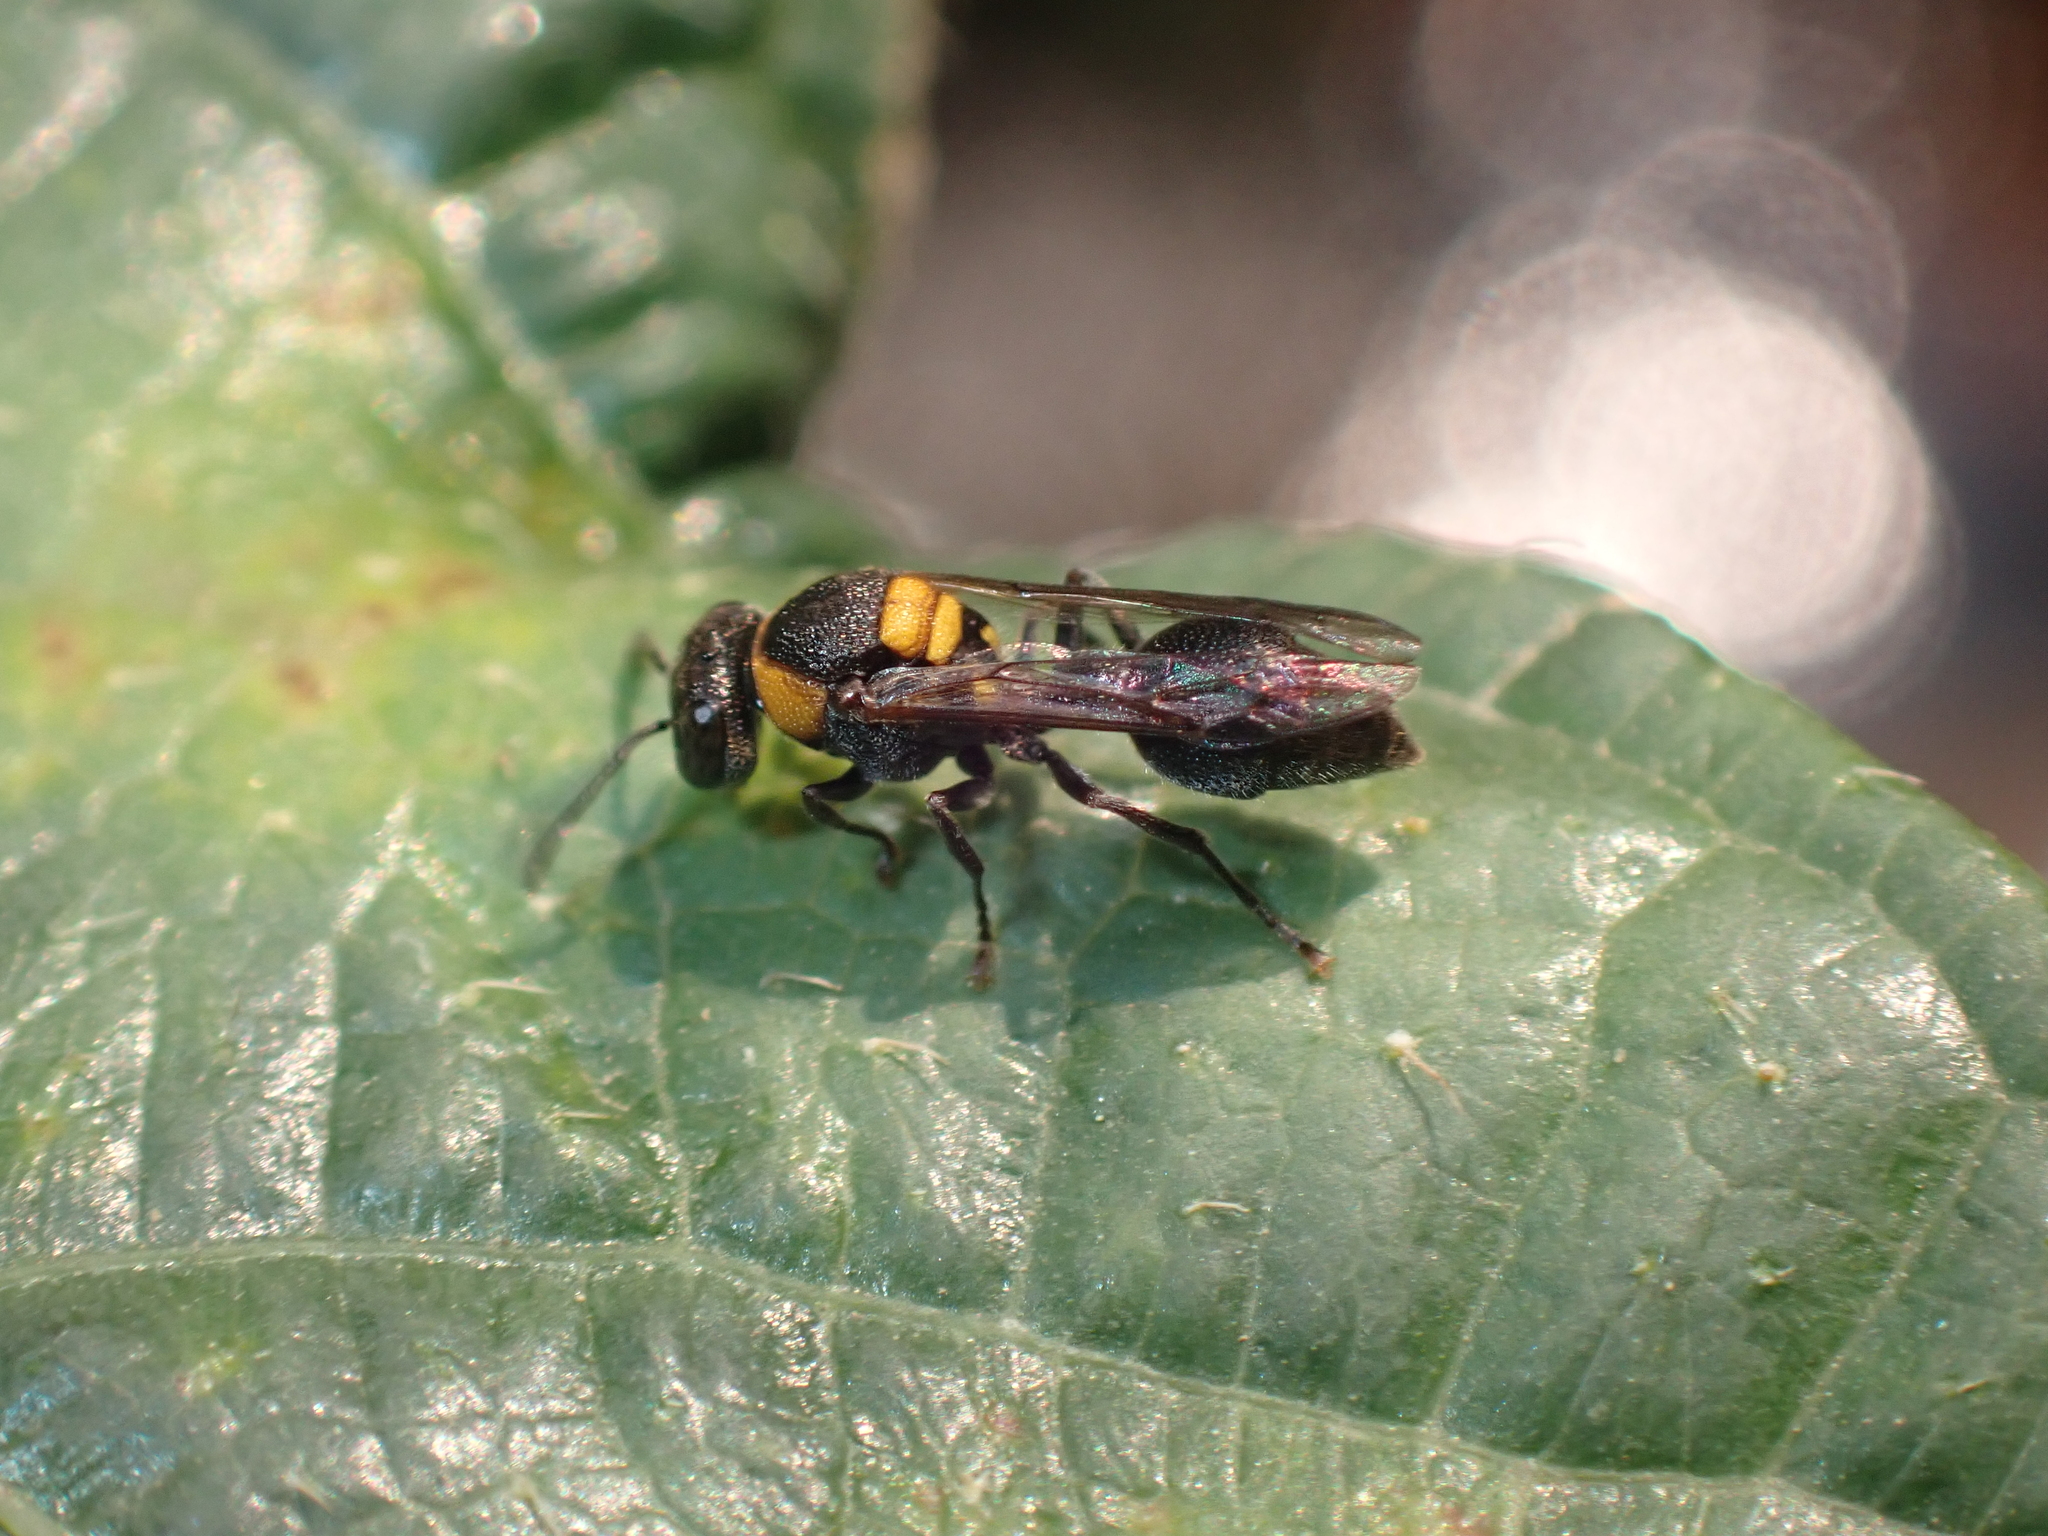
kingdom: Animalia
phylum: Arthropoda
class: Insecta
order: Hymenoptera
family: Vespidae
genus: Ropalidia
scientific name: Ropalidia bicolorata
